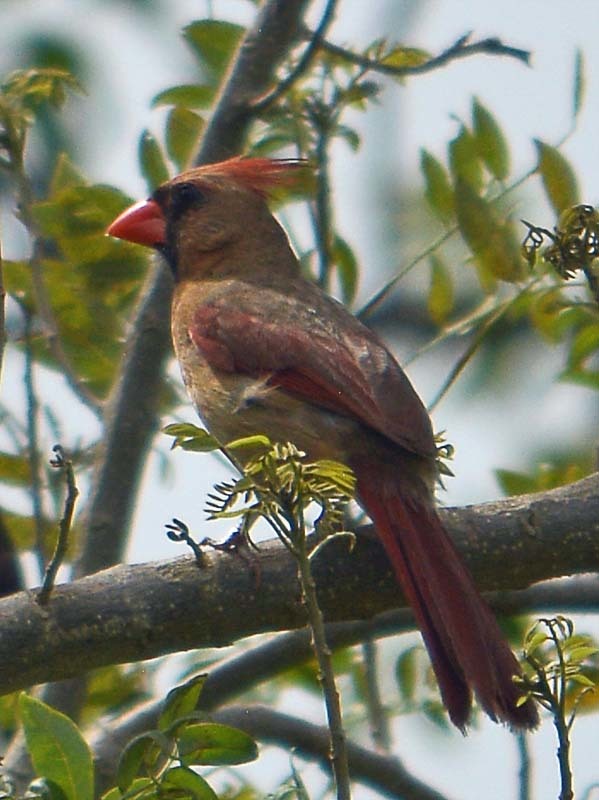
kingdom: Animalia
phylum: Chordata
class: Aves
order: Passeriformes
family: Cardinalidae
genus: Cardinalis
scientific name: Cardinalis cardinalis
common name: Northern cardinal
